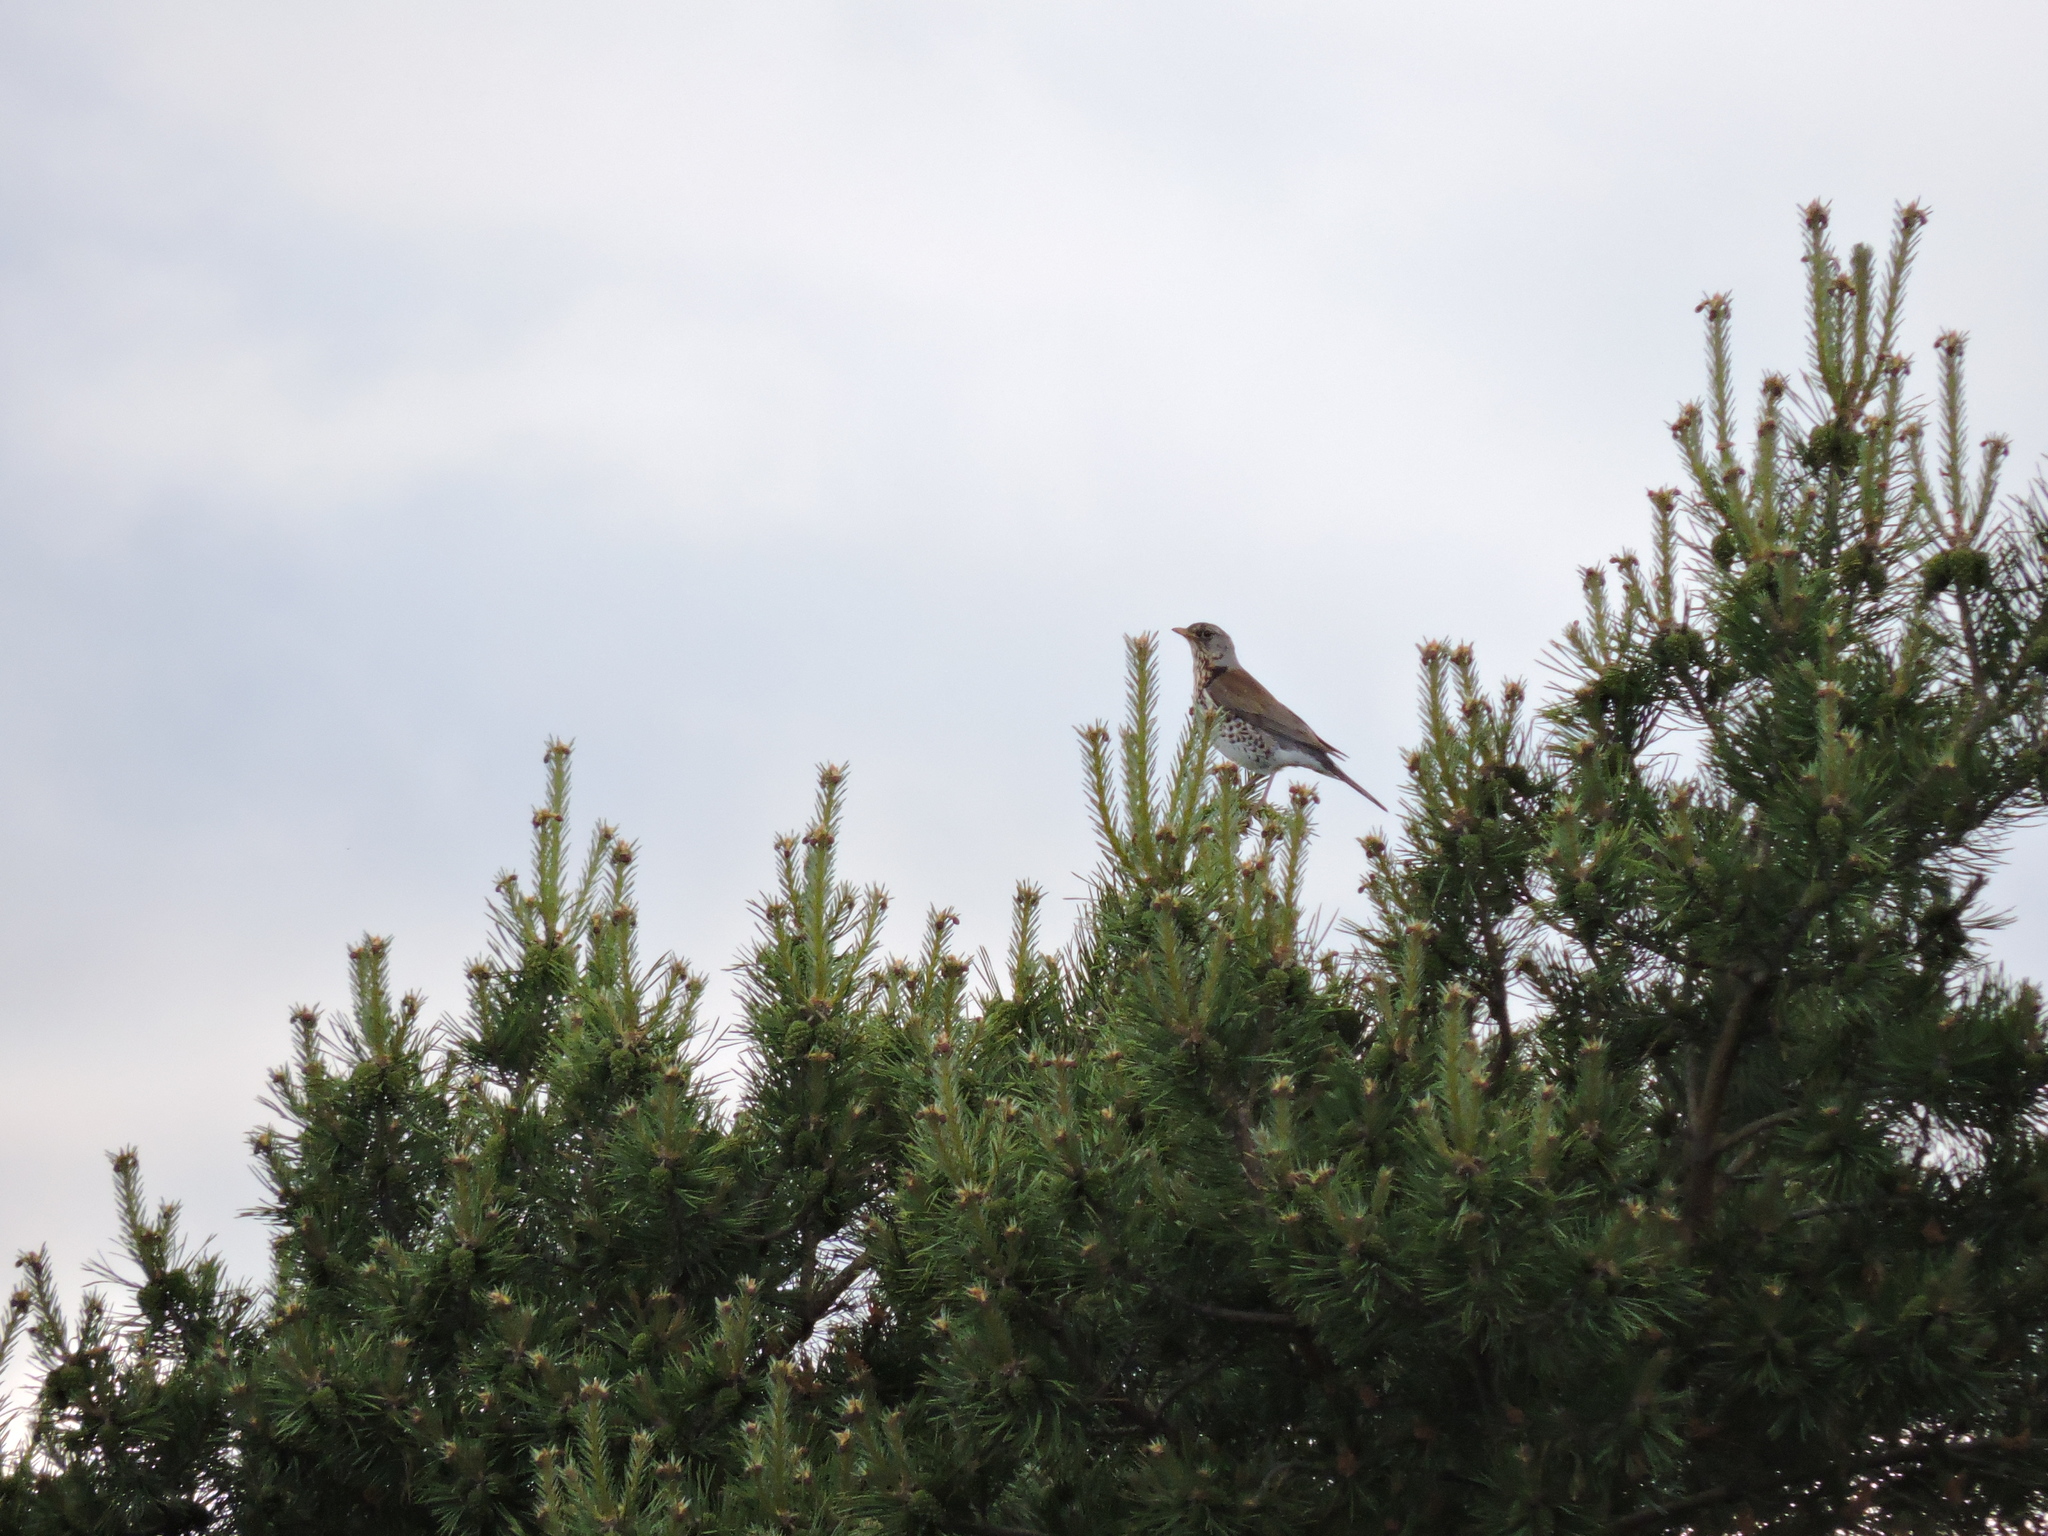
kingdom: Animalia
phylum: Chordata
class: Aves
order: Passeriformes
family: Turdidae
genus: Turdus
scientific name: Turdus pilaris
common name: Fieldfare
